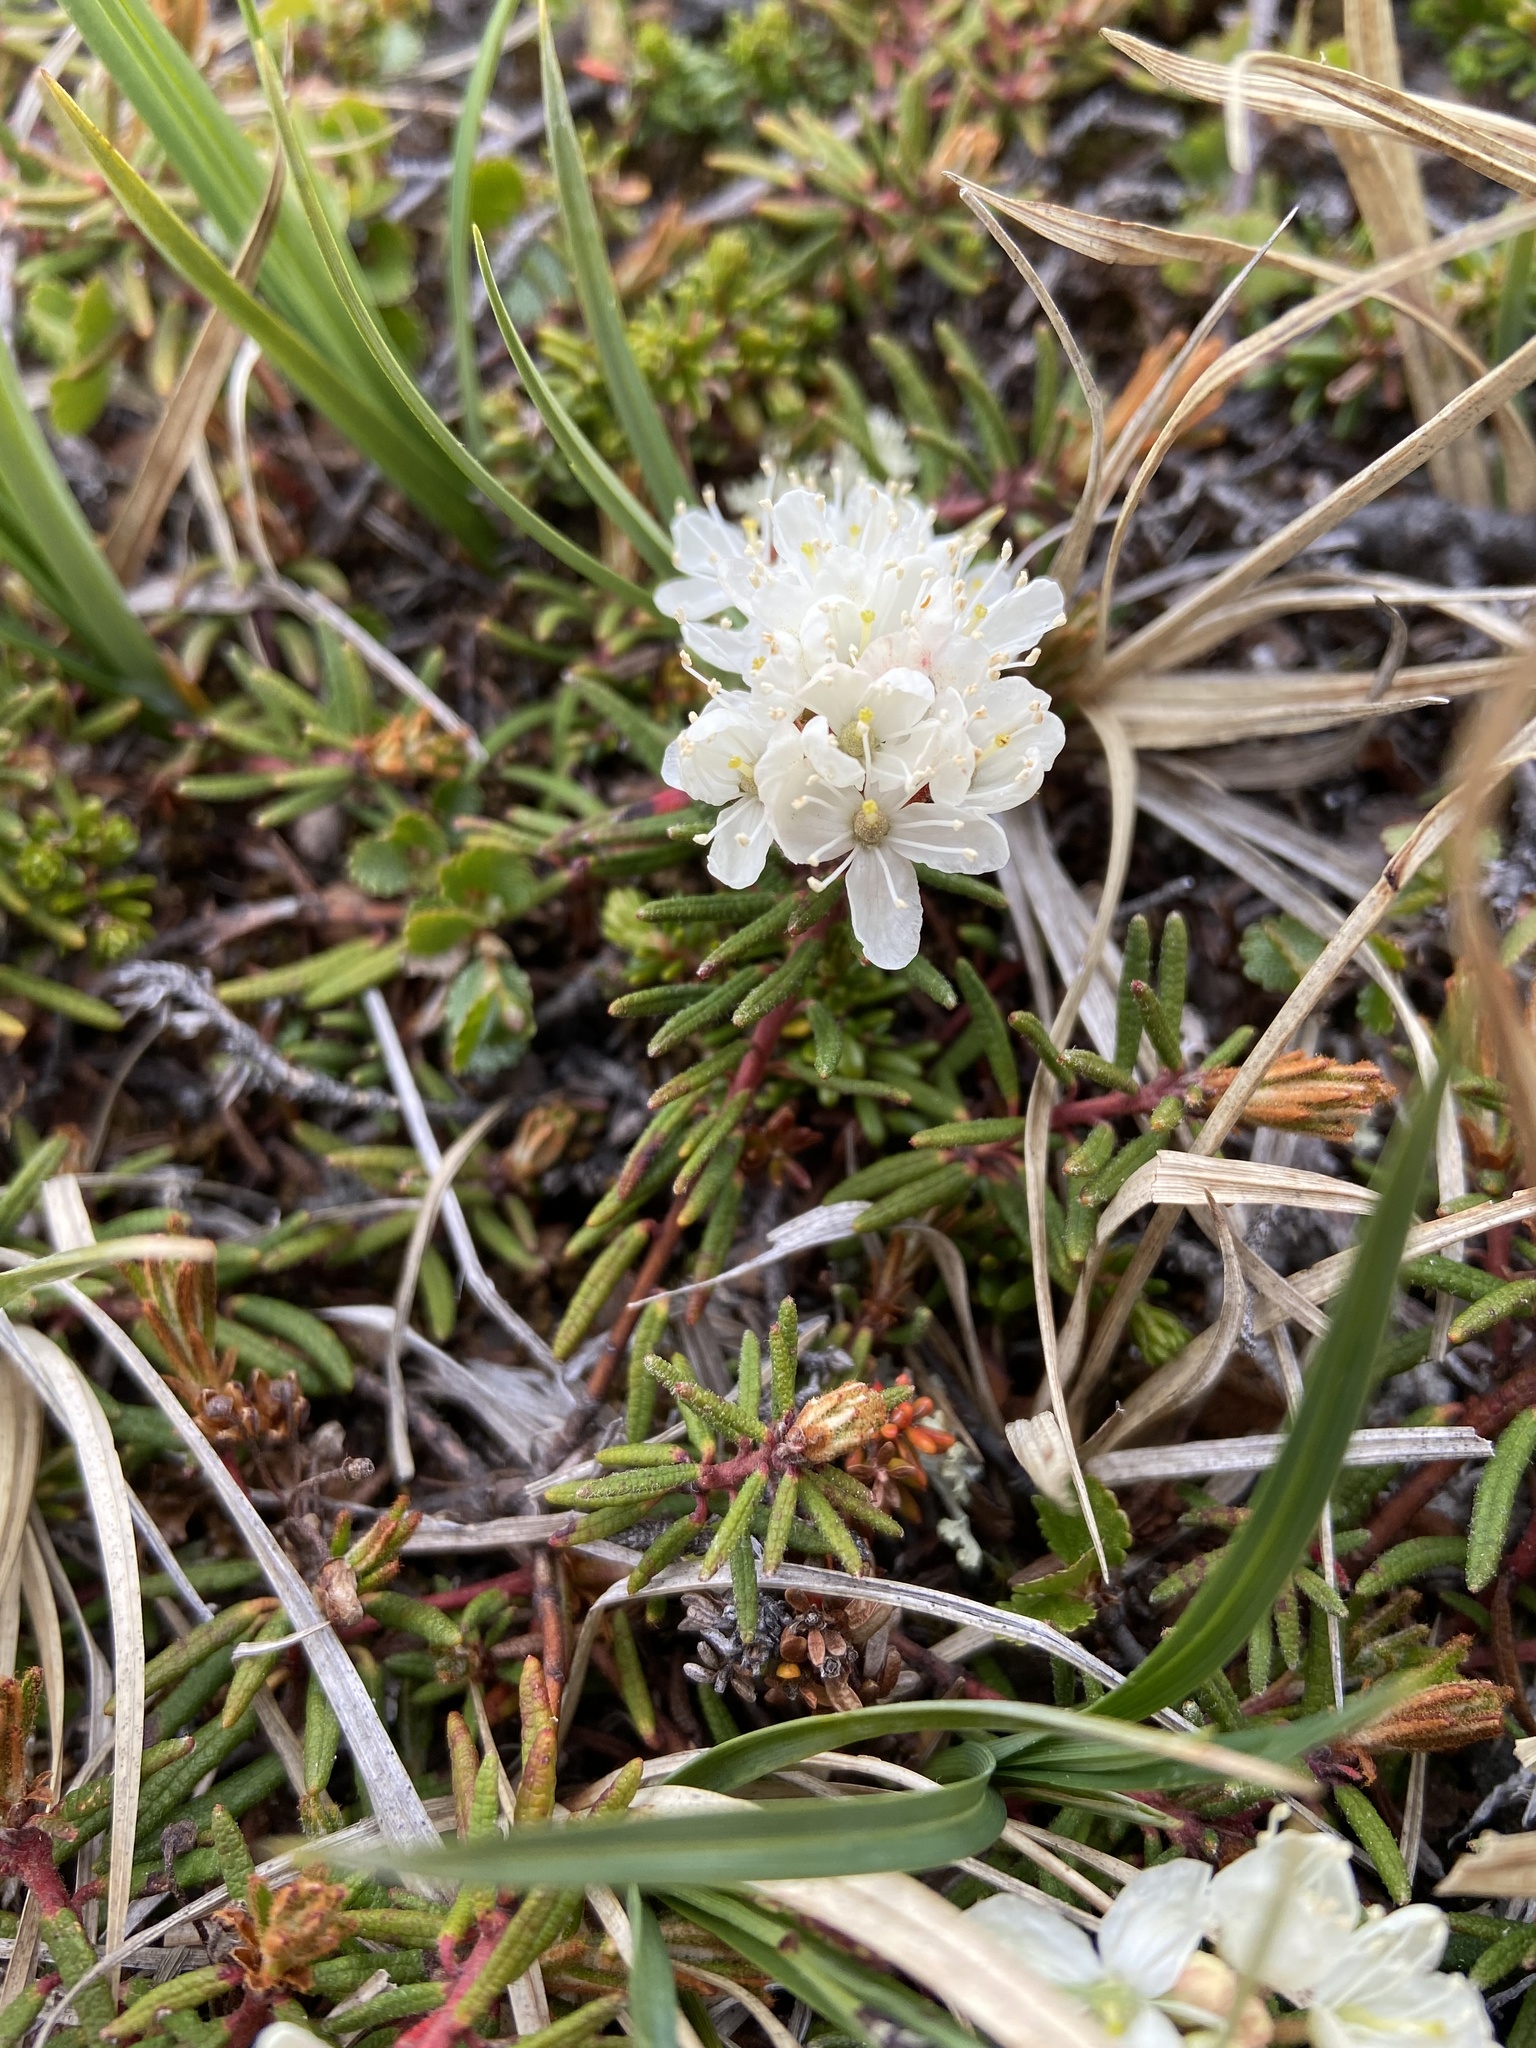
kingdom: Plantae
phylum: Tracheophyta
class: Magnoliopsida
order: Ericales
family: Ericaceae
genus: Rhododendron
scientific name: Rhododendron tomentosum
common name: Marsh labrador tea
